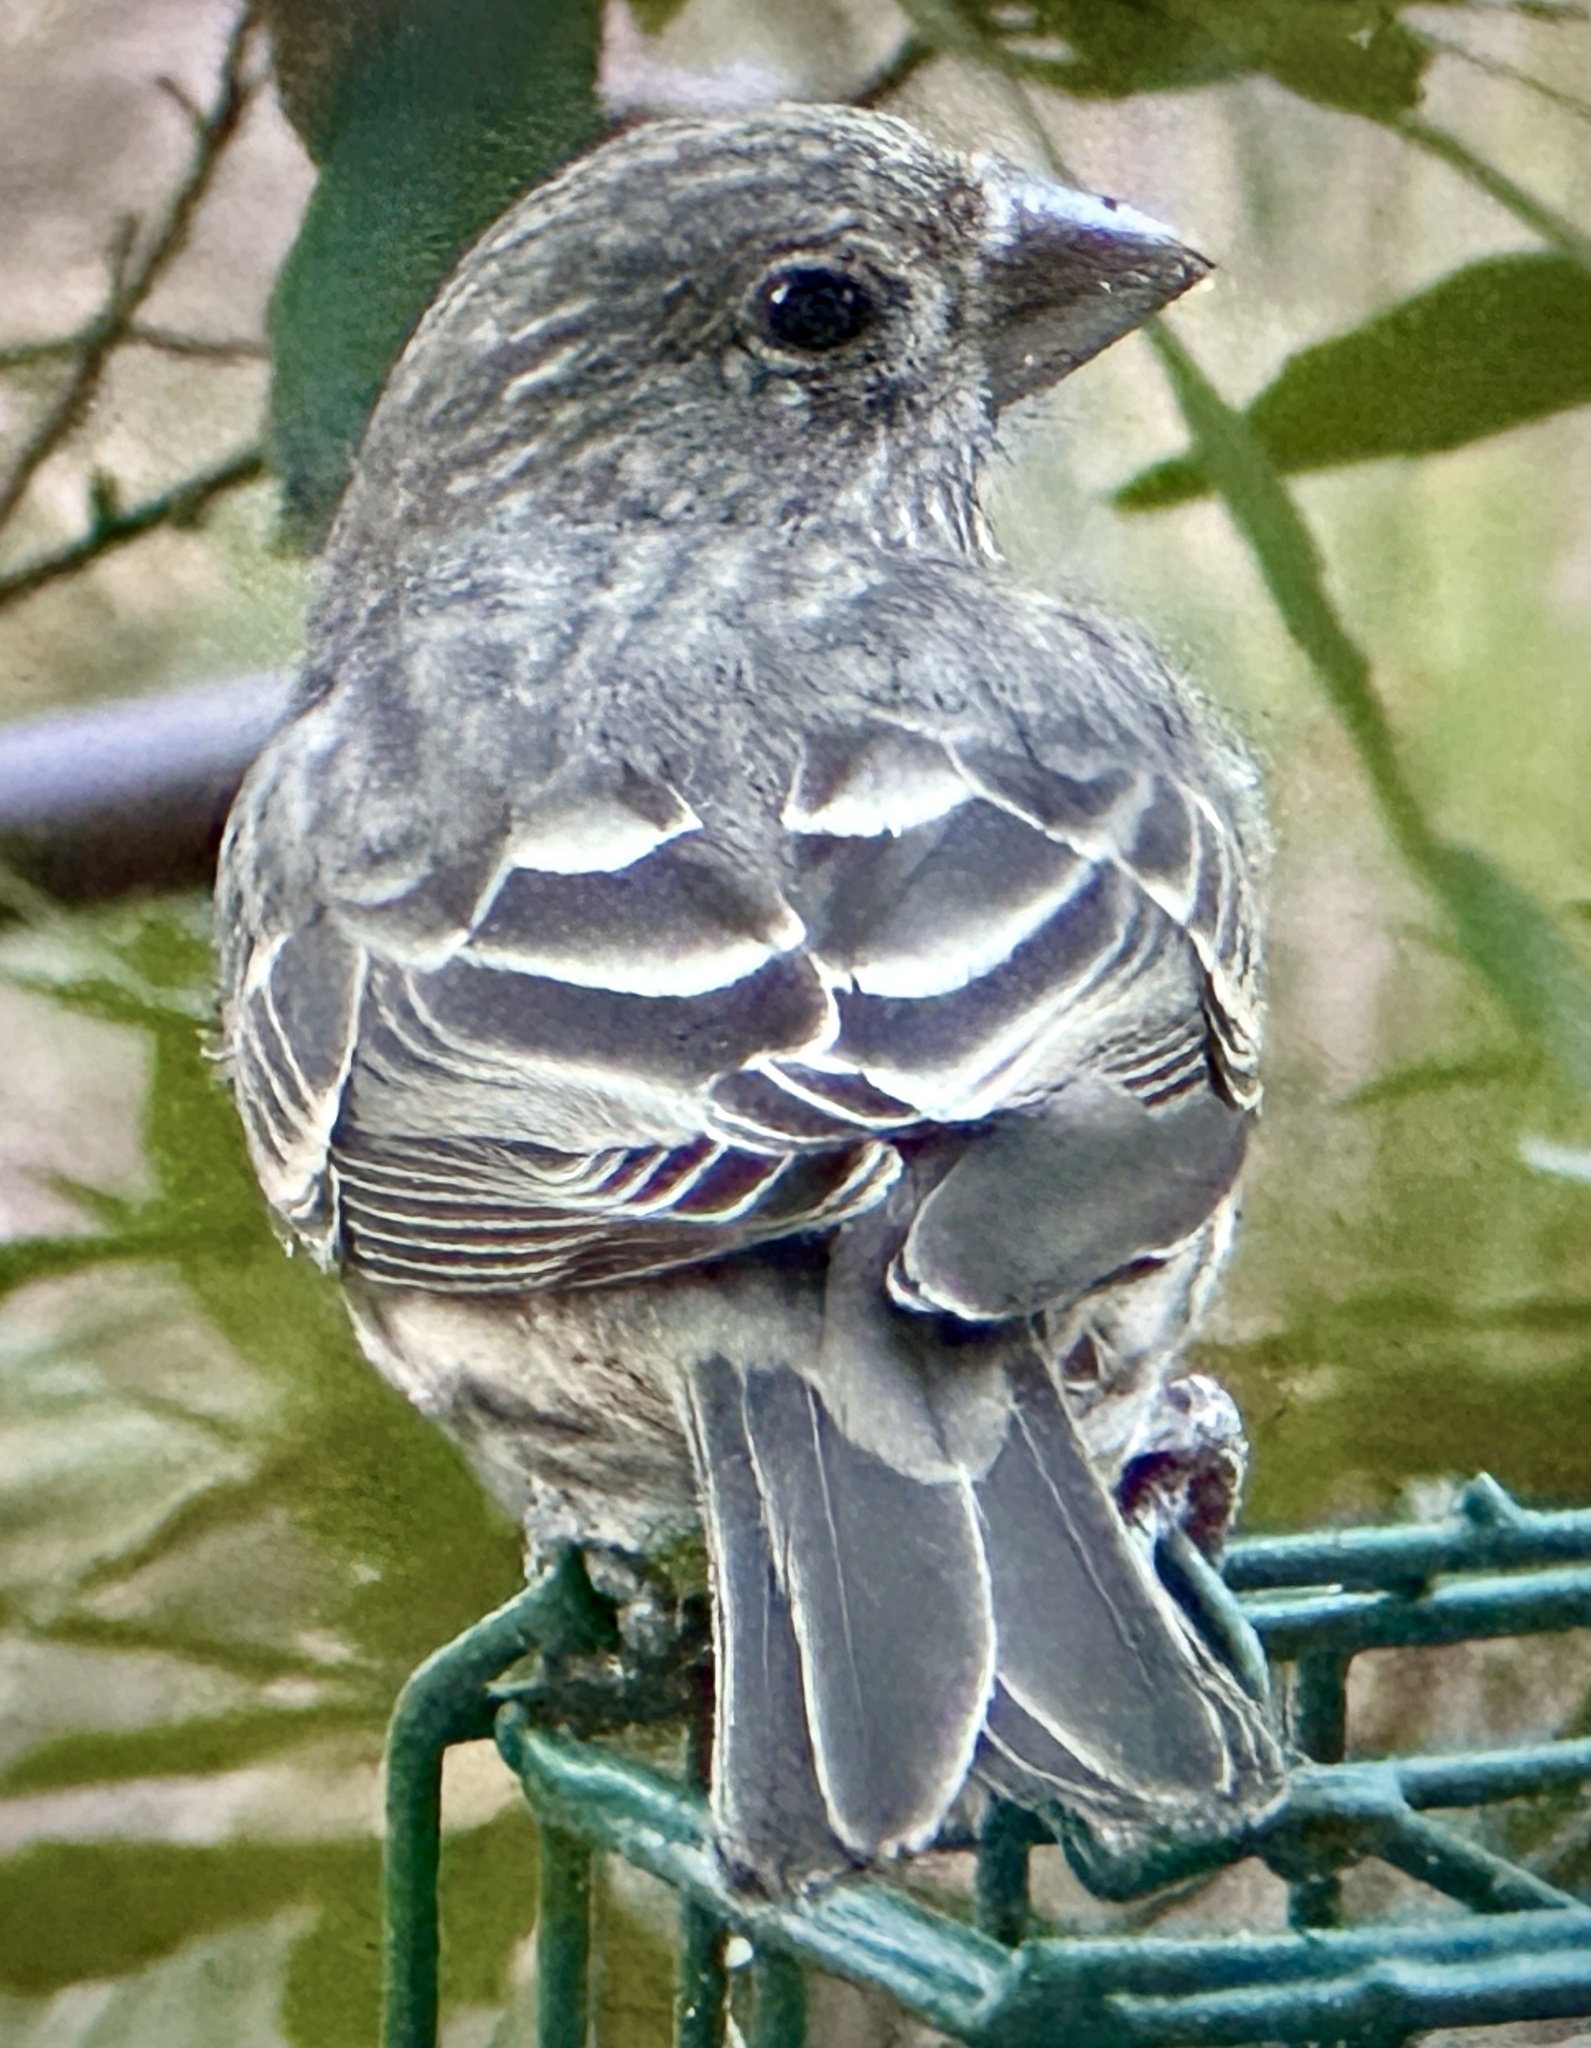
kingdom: Animalia
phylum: Chordata
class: Aves
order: Passeriformes
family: Fringillidae
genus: Haemorhous
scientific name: Haemorhous mexicanus
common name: House finch
